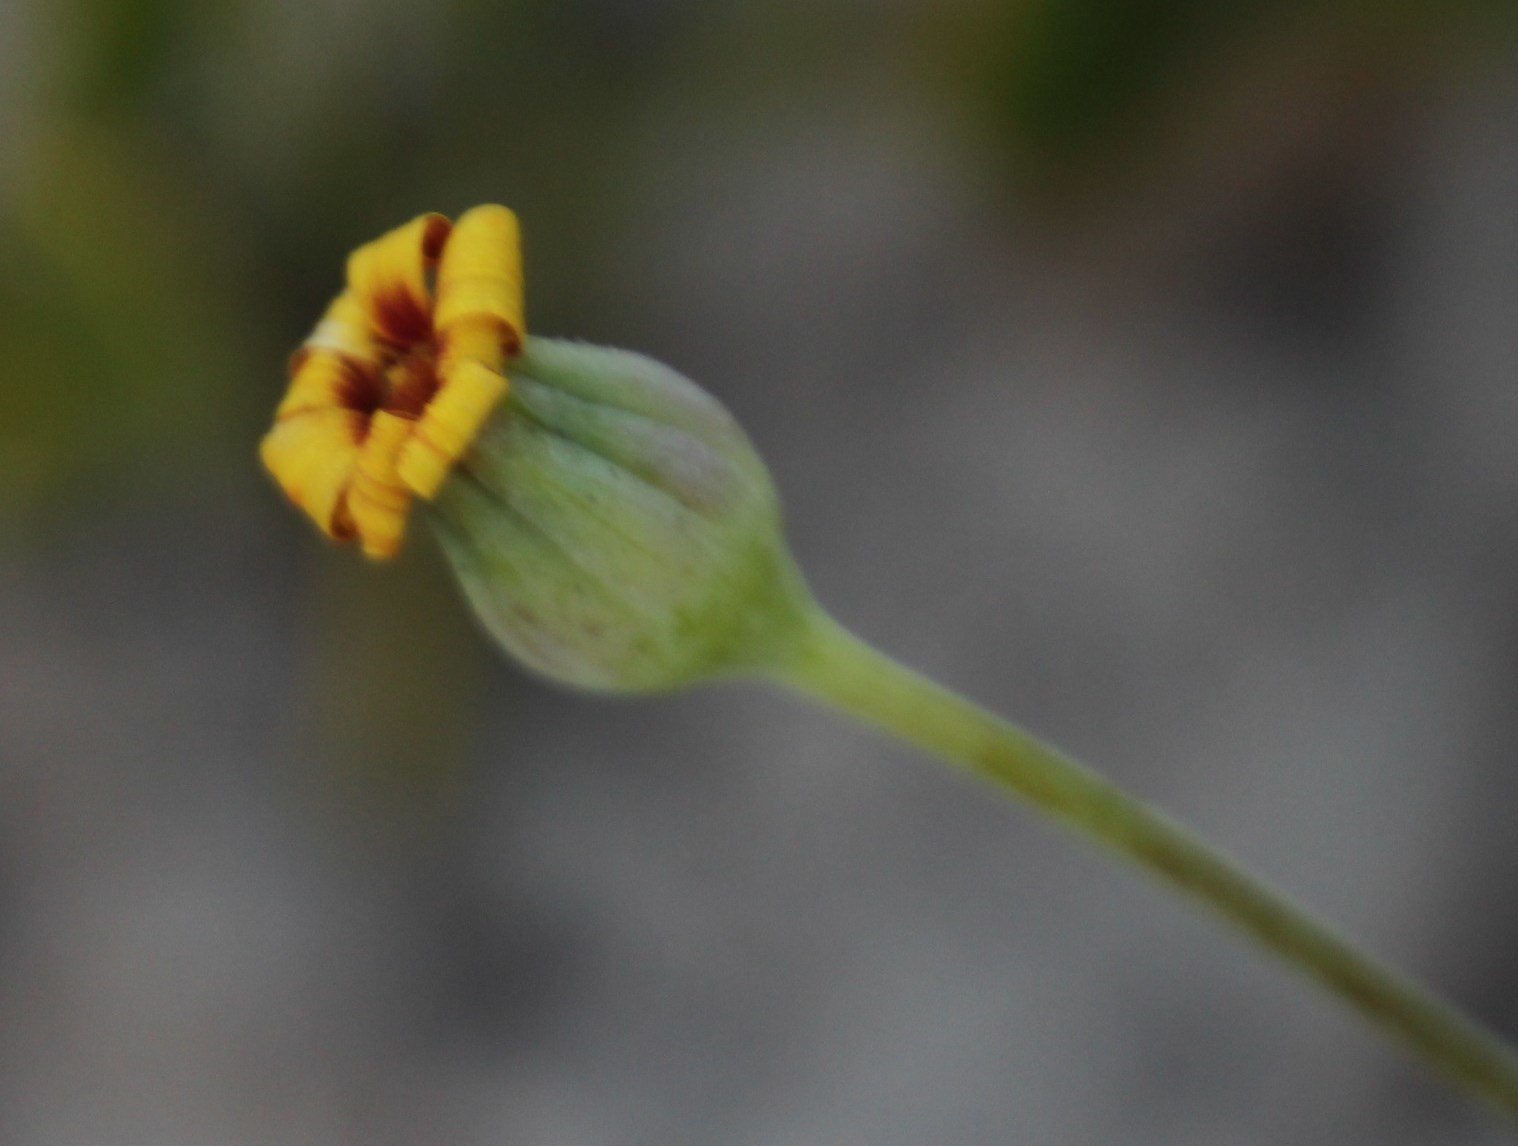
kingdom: Plantae
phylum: Tracheophyta
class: Magnoliopsida
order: Asterales
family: Asteraceae
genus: Othonna
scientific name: Othonna coronopifolia
